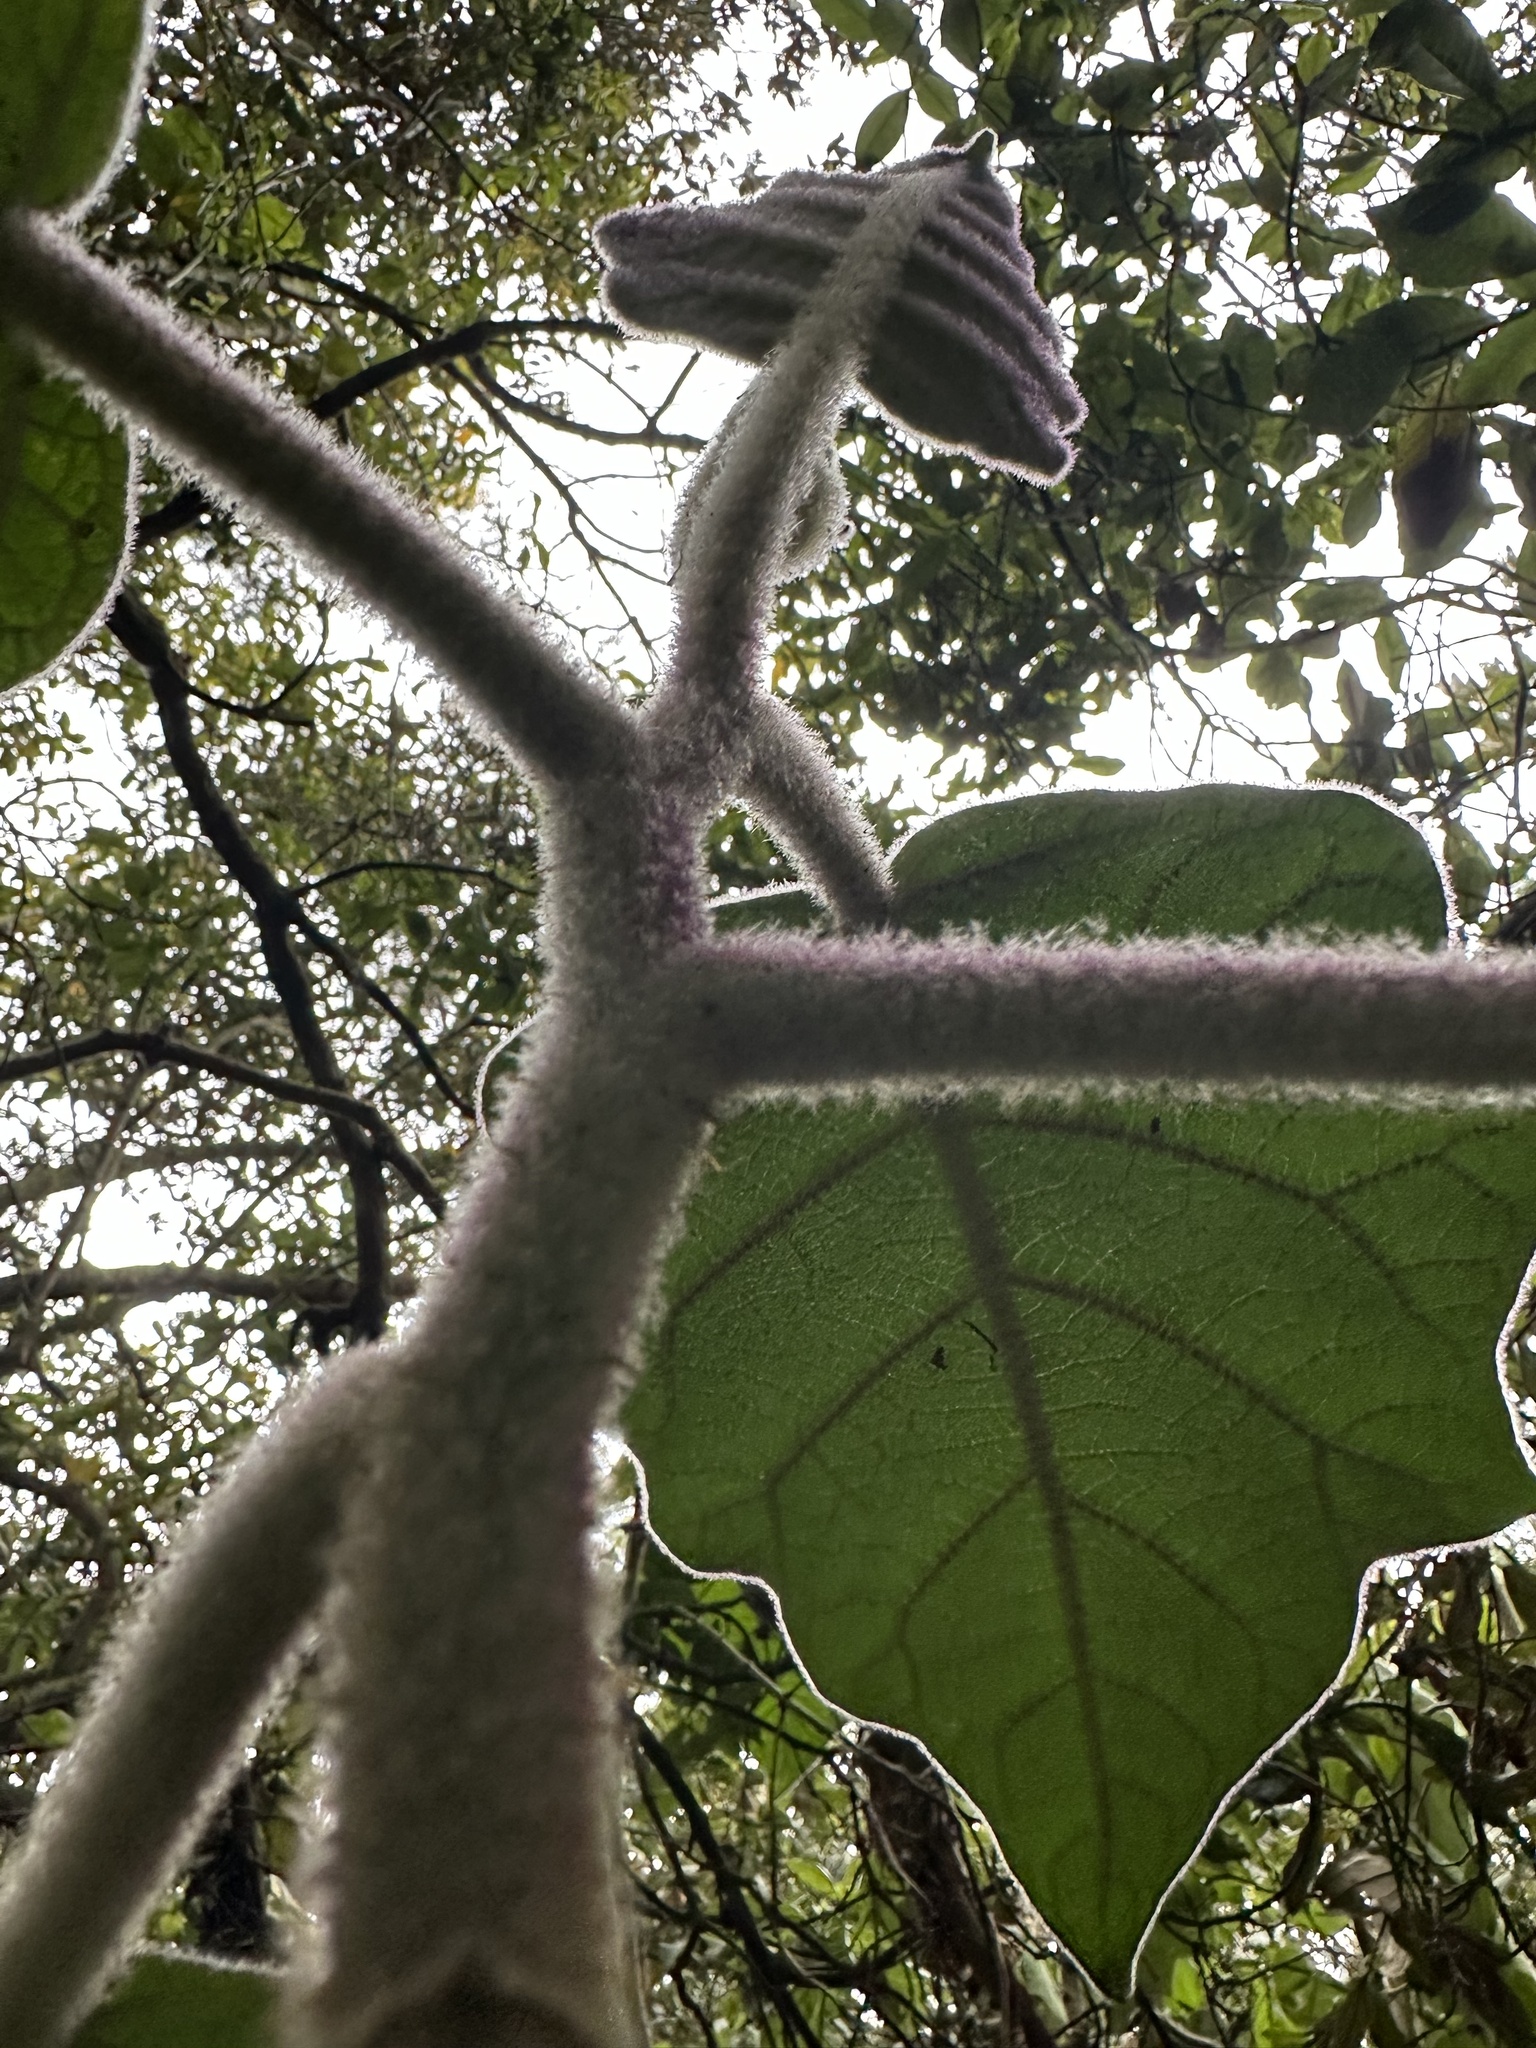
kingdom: Plantae
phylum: Tracheophyta
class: Magnoliopsida
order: Solanales
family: Solanaceae
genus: Solanum
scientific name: Solanum vestissimum
